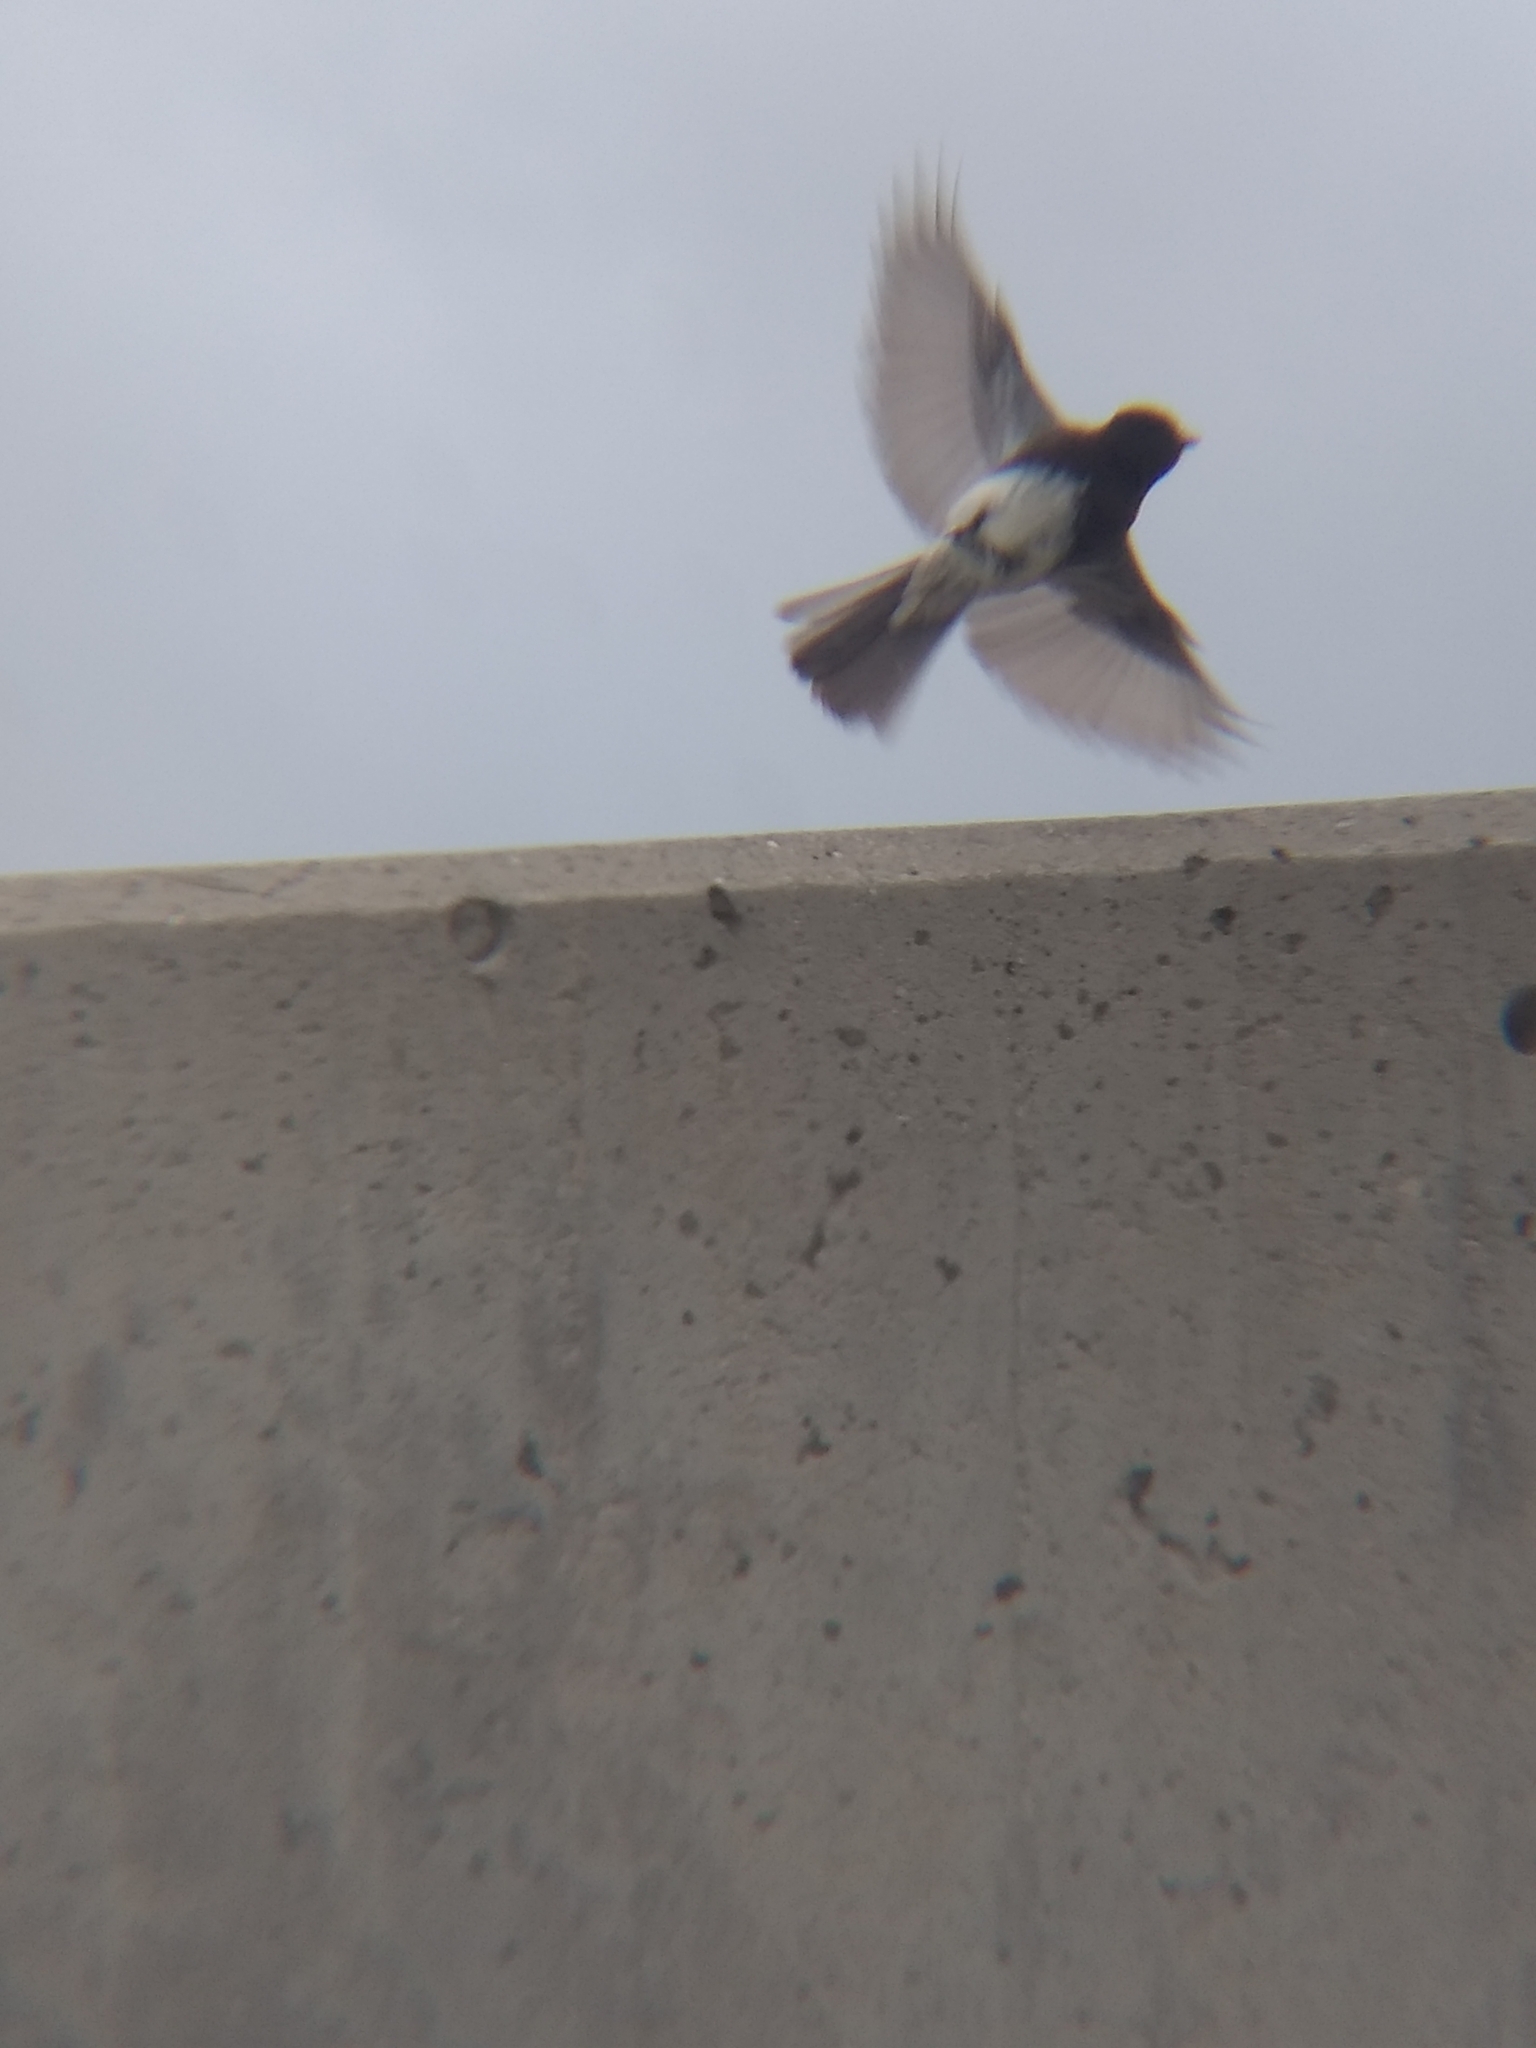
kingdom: Animalia
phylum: Chordata
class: Aves
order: Passeriformes
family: Tyrannidae
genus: Sayornis
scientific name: Sayornis nigricans
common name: Black phoebe
